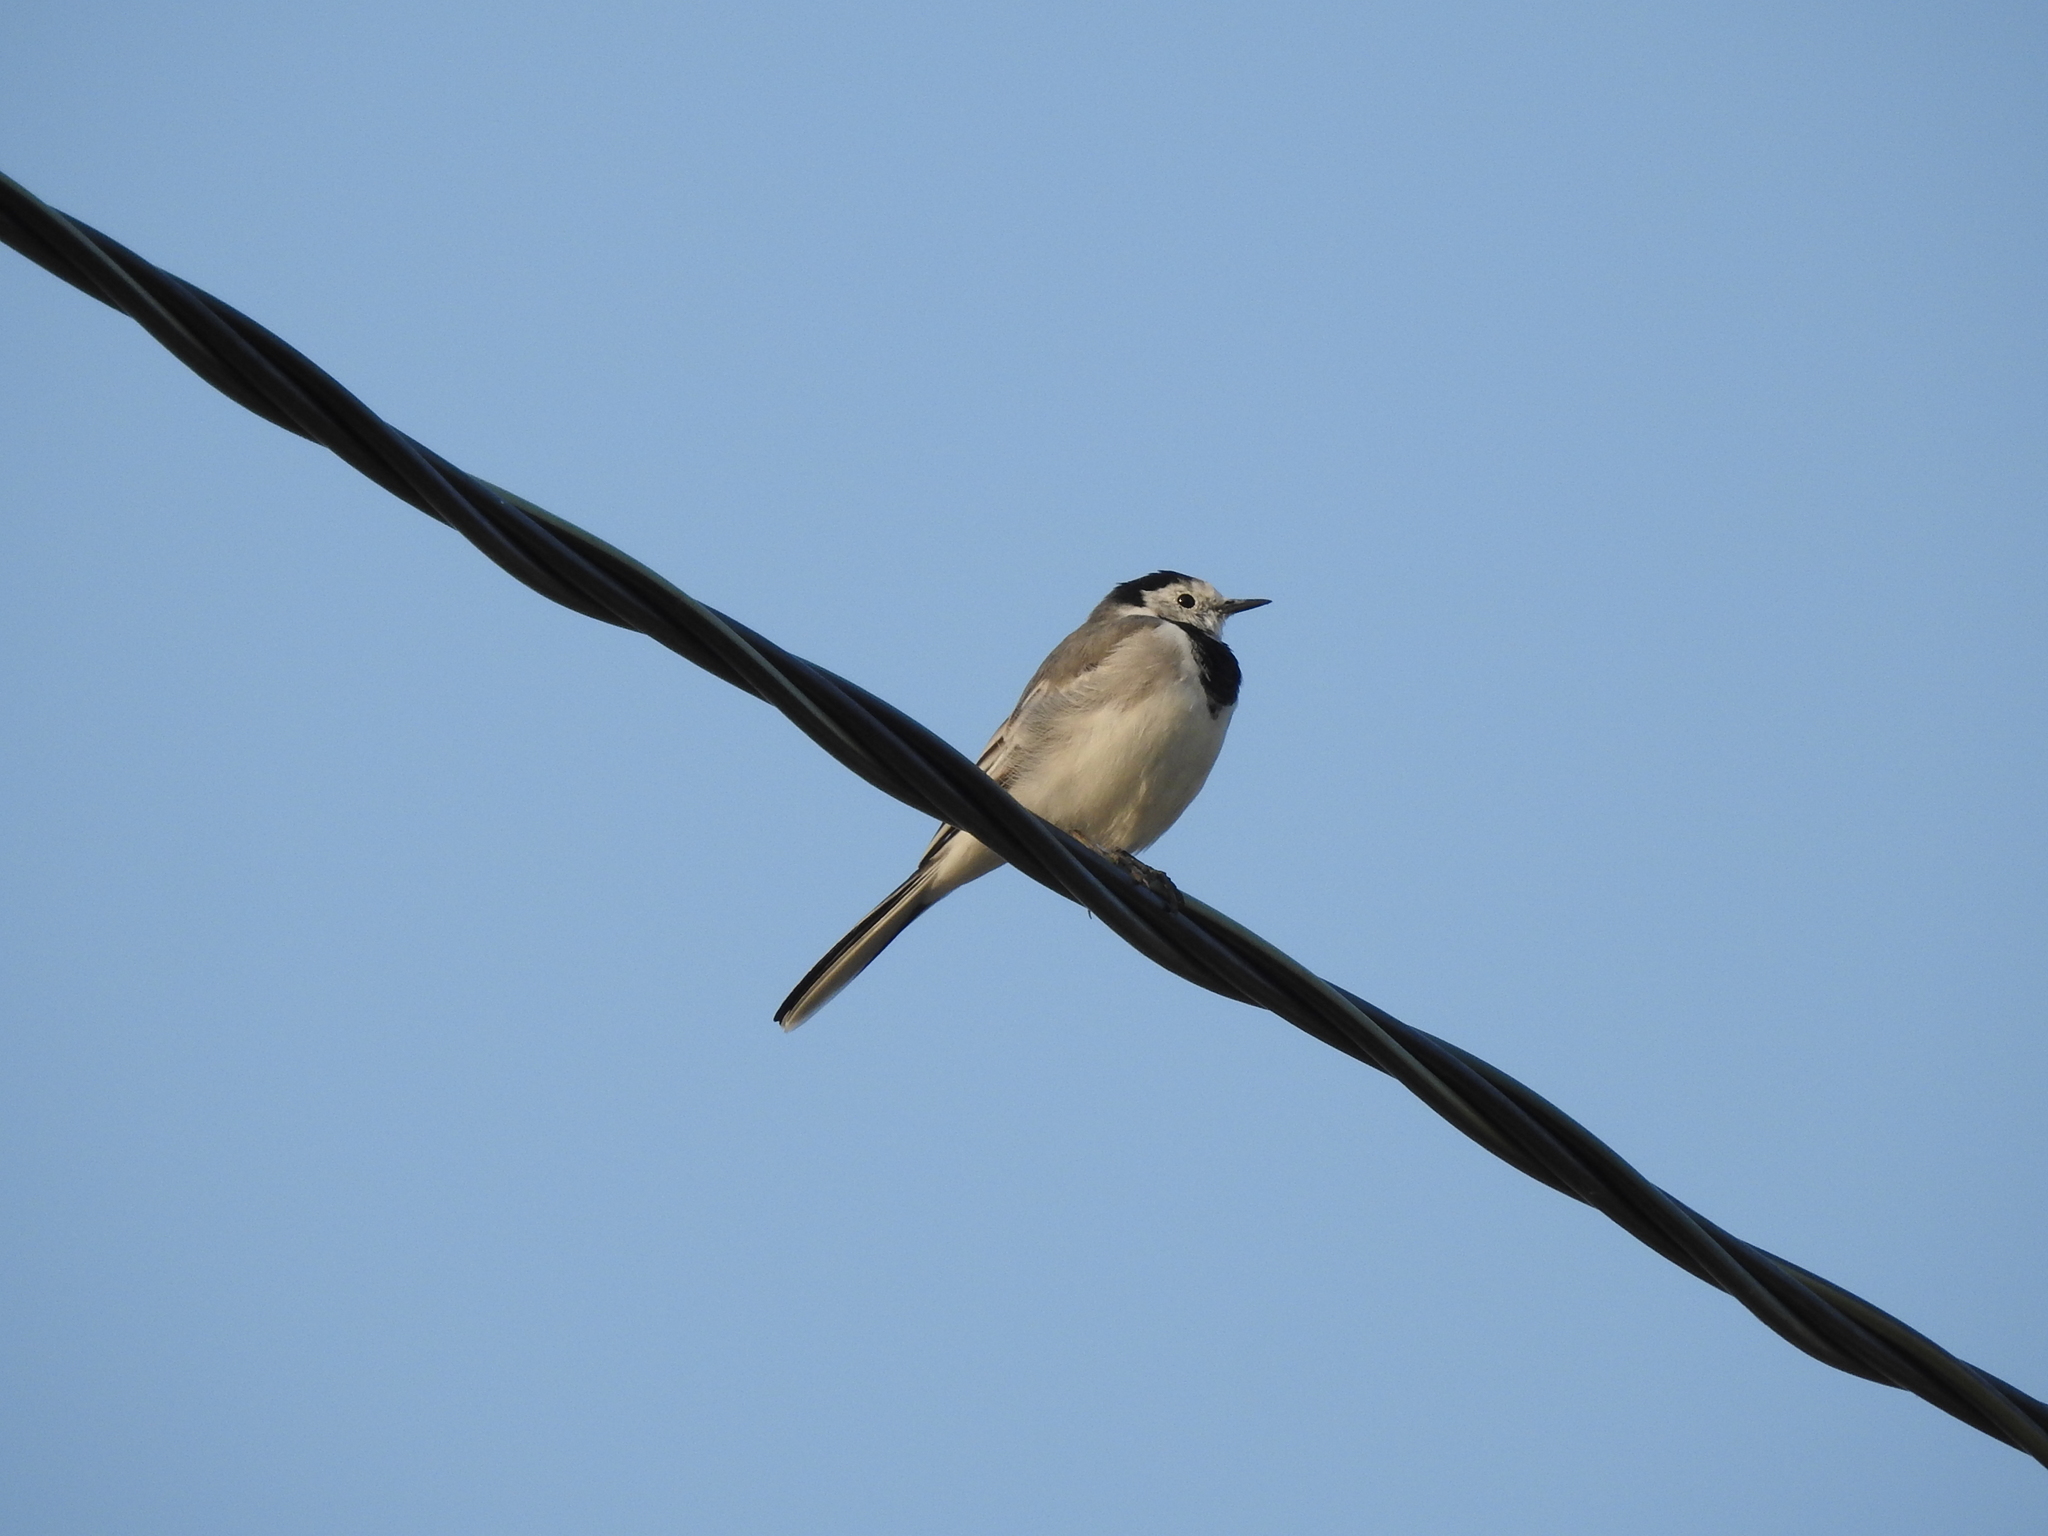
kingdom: Animalia
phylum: Chordata
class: Aves
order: Passeriformes
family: Motacillidae
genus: Motacilla
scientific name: Motacilla alba
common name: White wagtail
